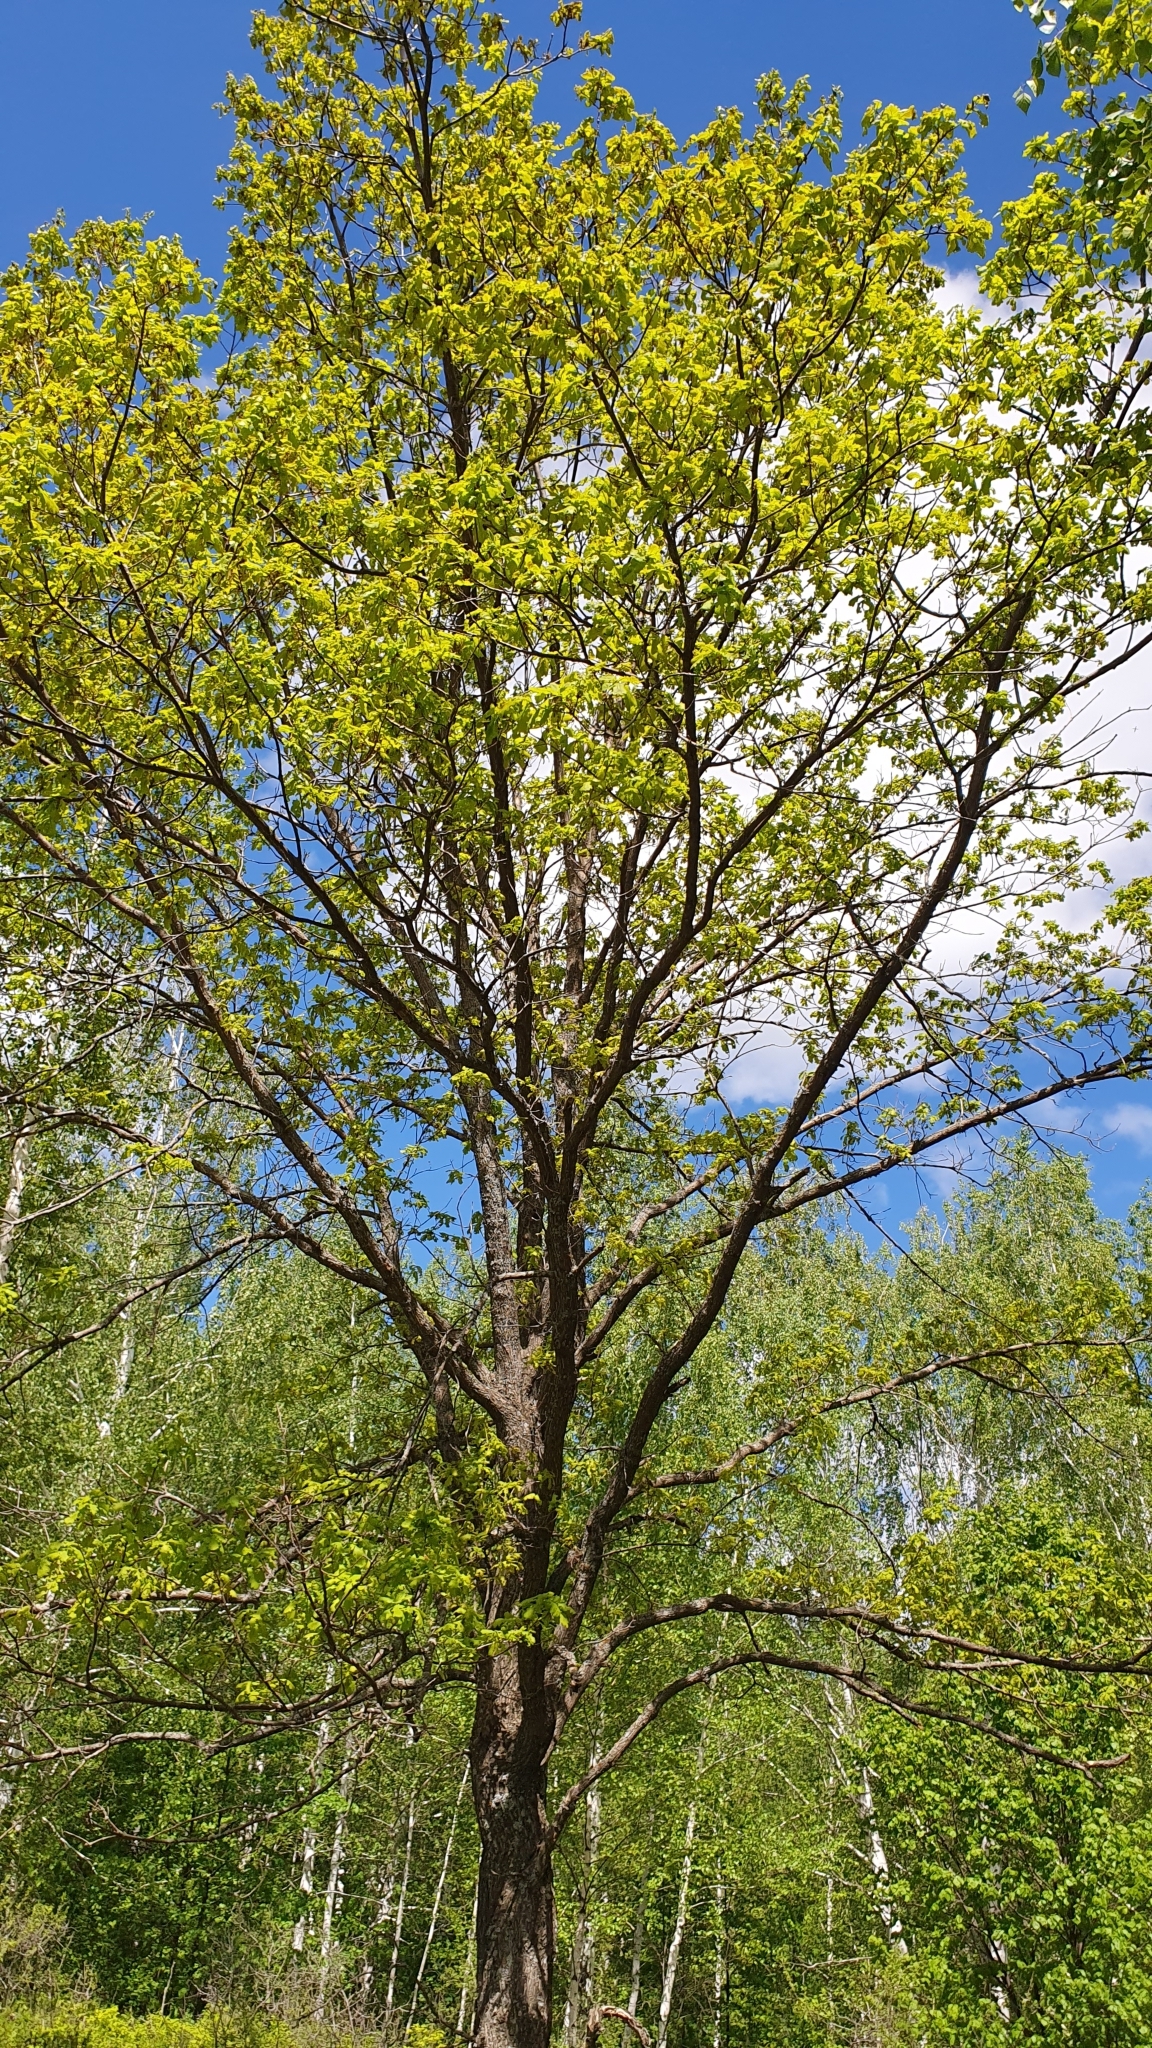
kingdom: Plantae
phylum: Tracheophyta
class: Magnoliopsida
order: Fagales
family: Fagaceae
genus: Quercus
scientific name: Quercus robur
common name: Pedunculate oak
